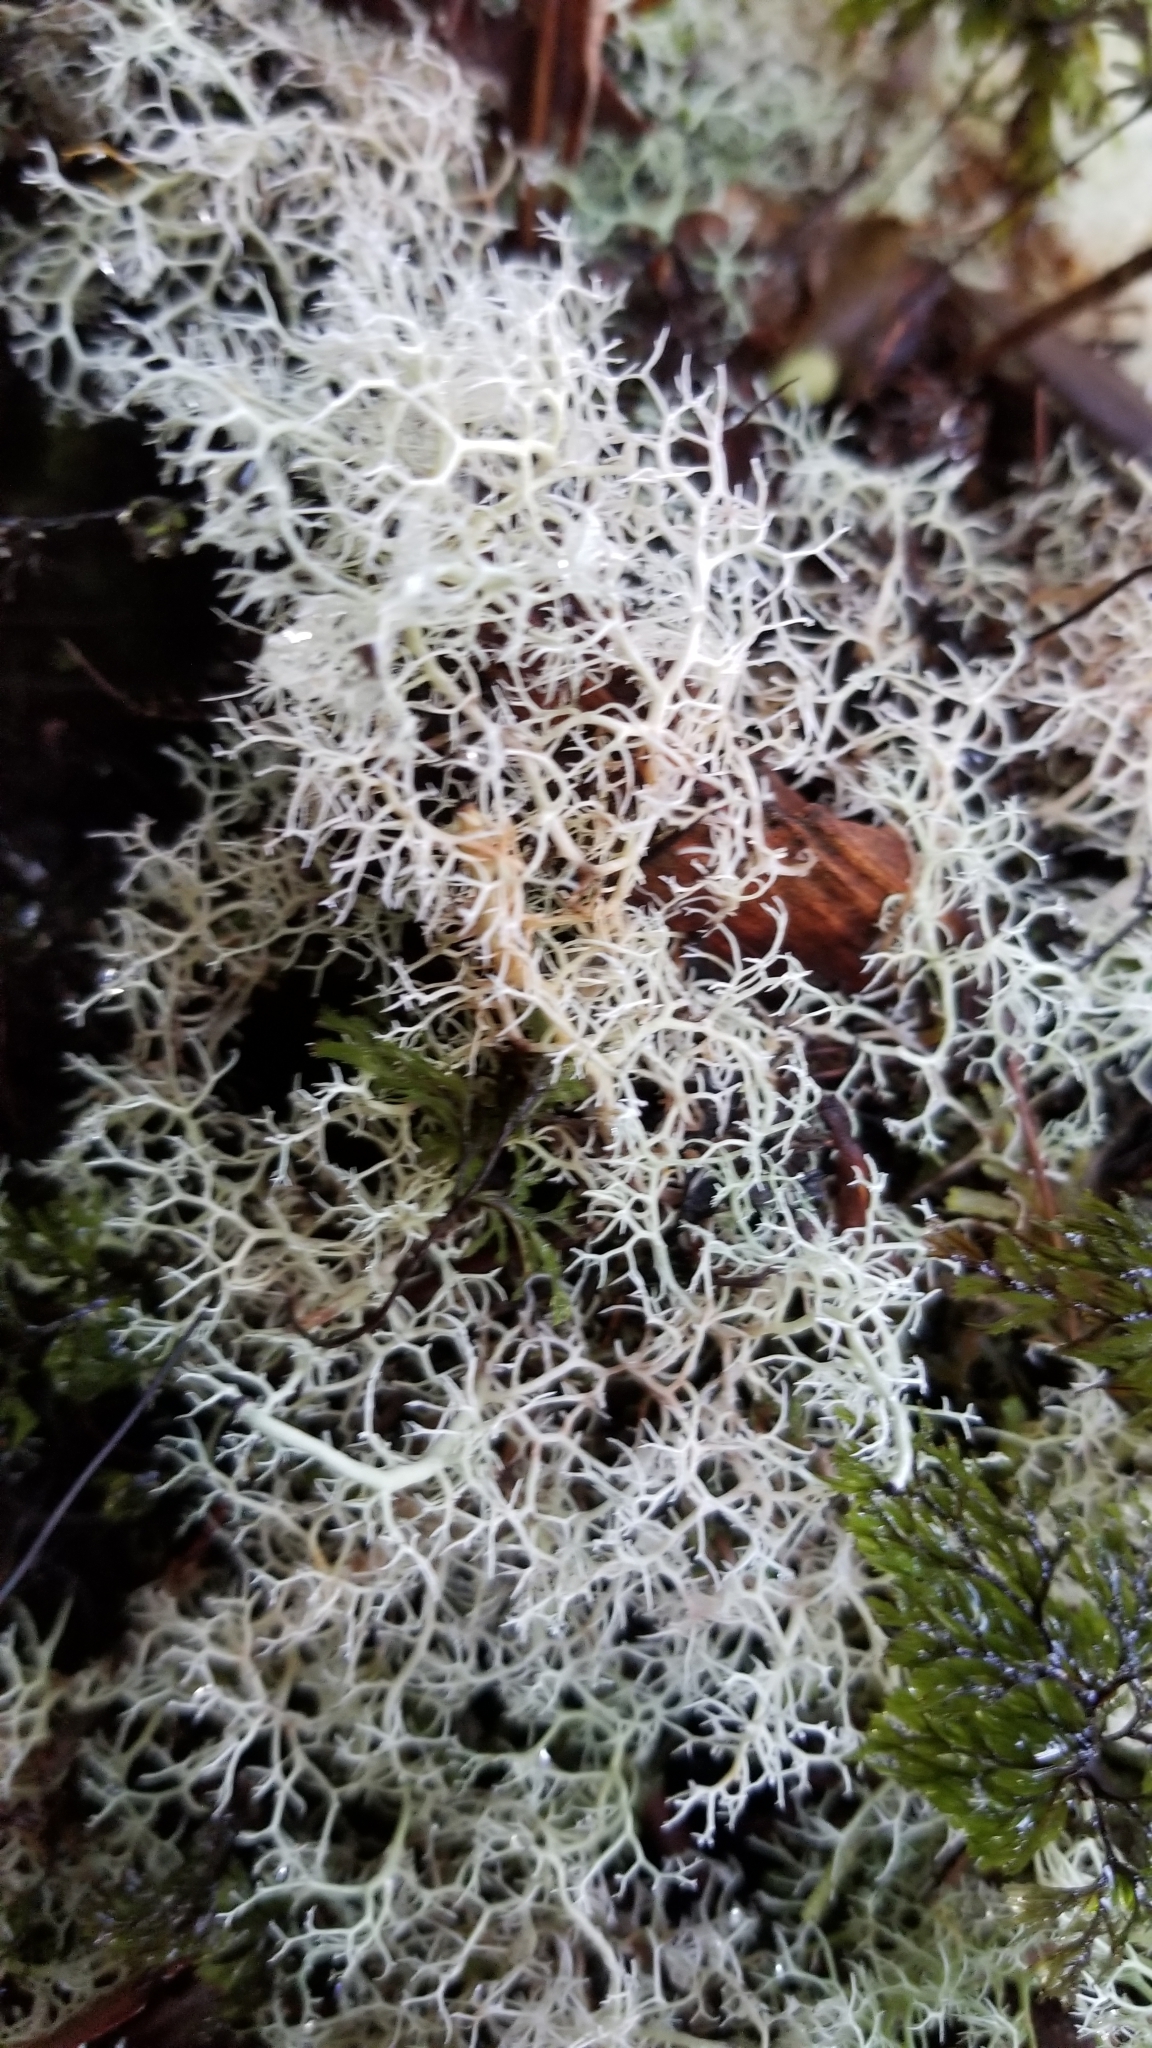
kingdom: Fungi
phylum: Ascomycota
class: Lecanoromycetes
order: Lecanorales
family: Cladoniaceae
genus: Cladonia
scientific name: Cladonia confusa
